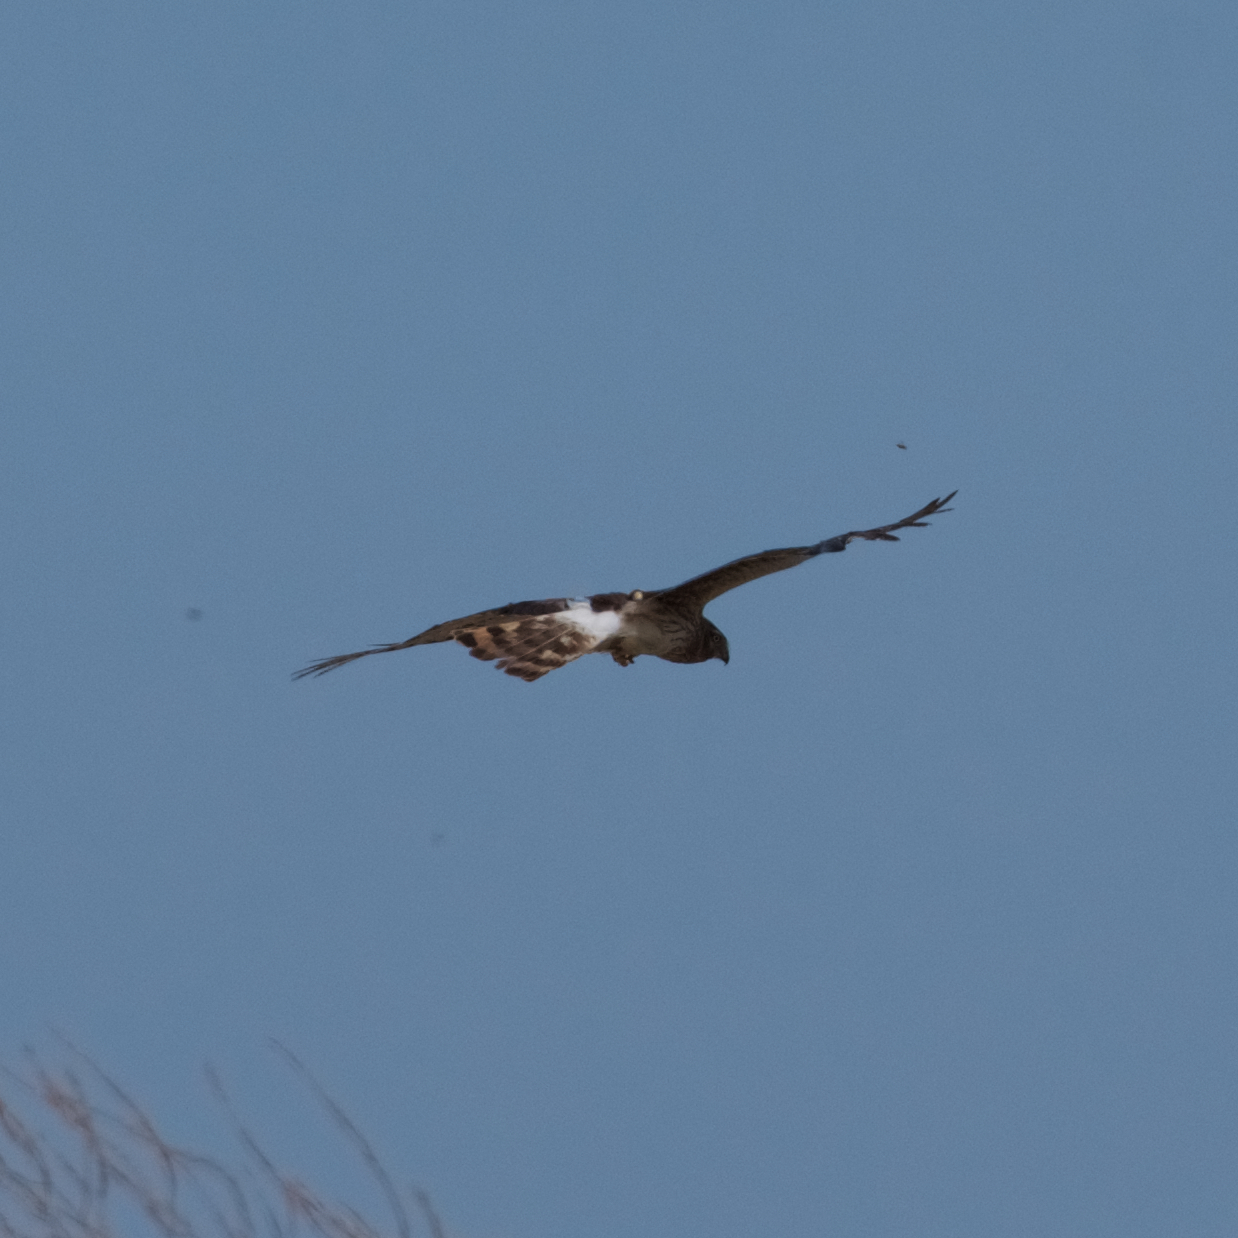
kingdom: Animalia
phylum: Chordata
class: Aves
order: Accipitriformes
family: Accipitridae
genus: Circus
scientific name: Circus cyaneus
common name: Hen harrier
